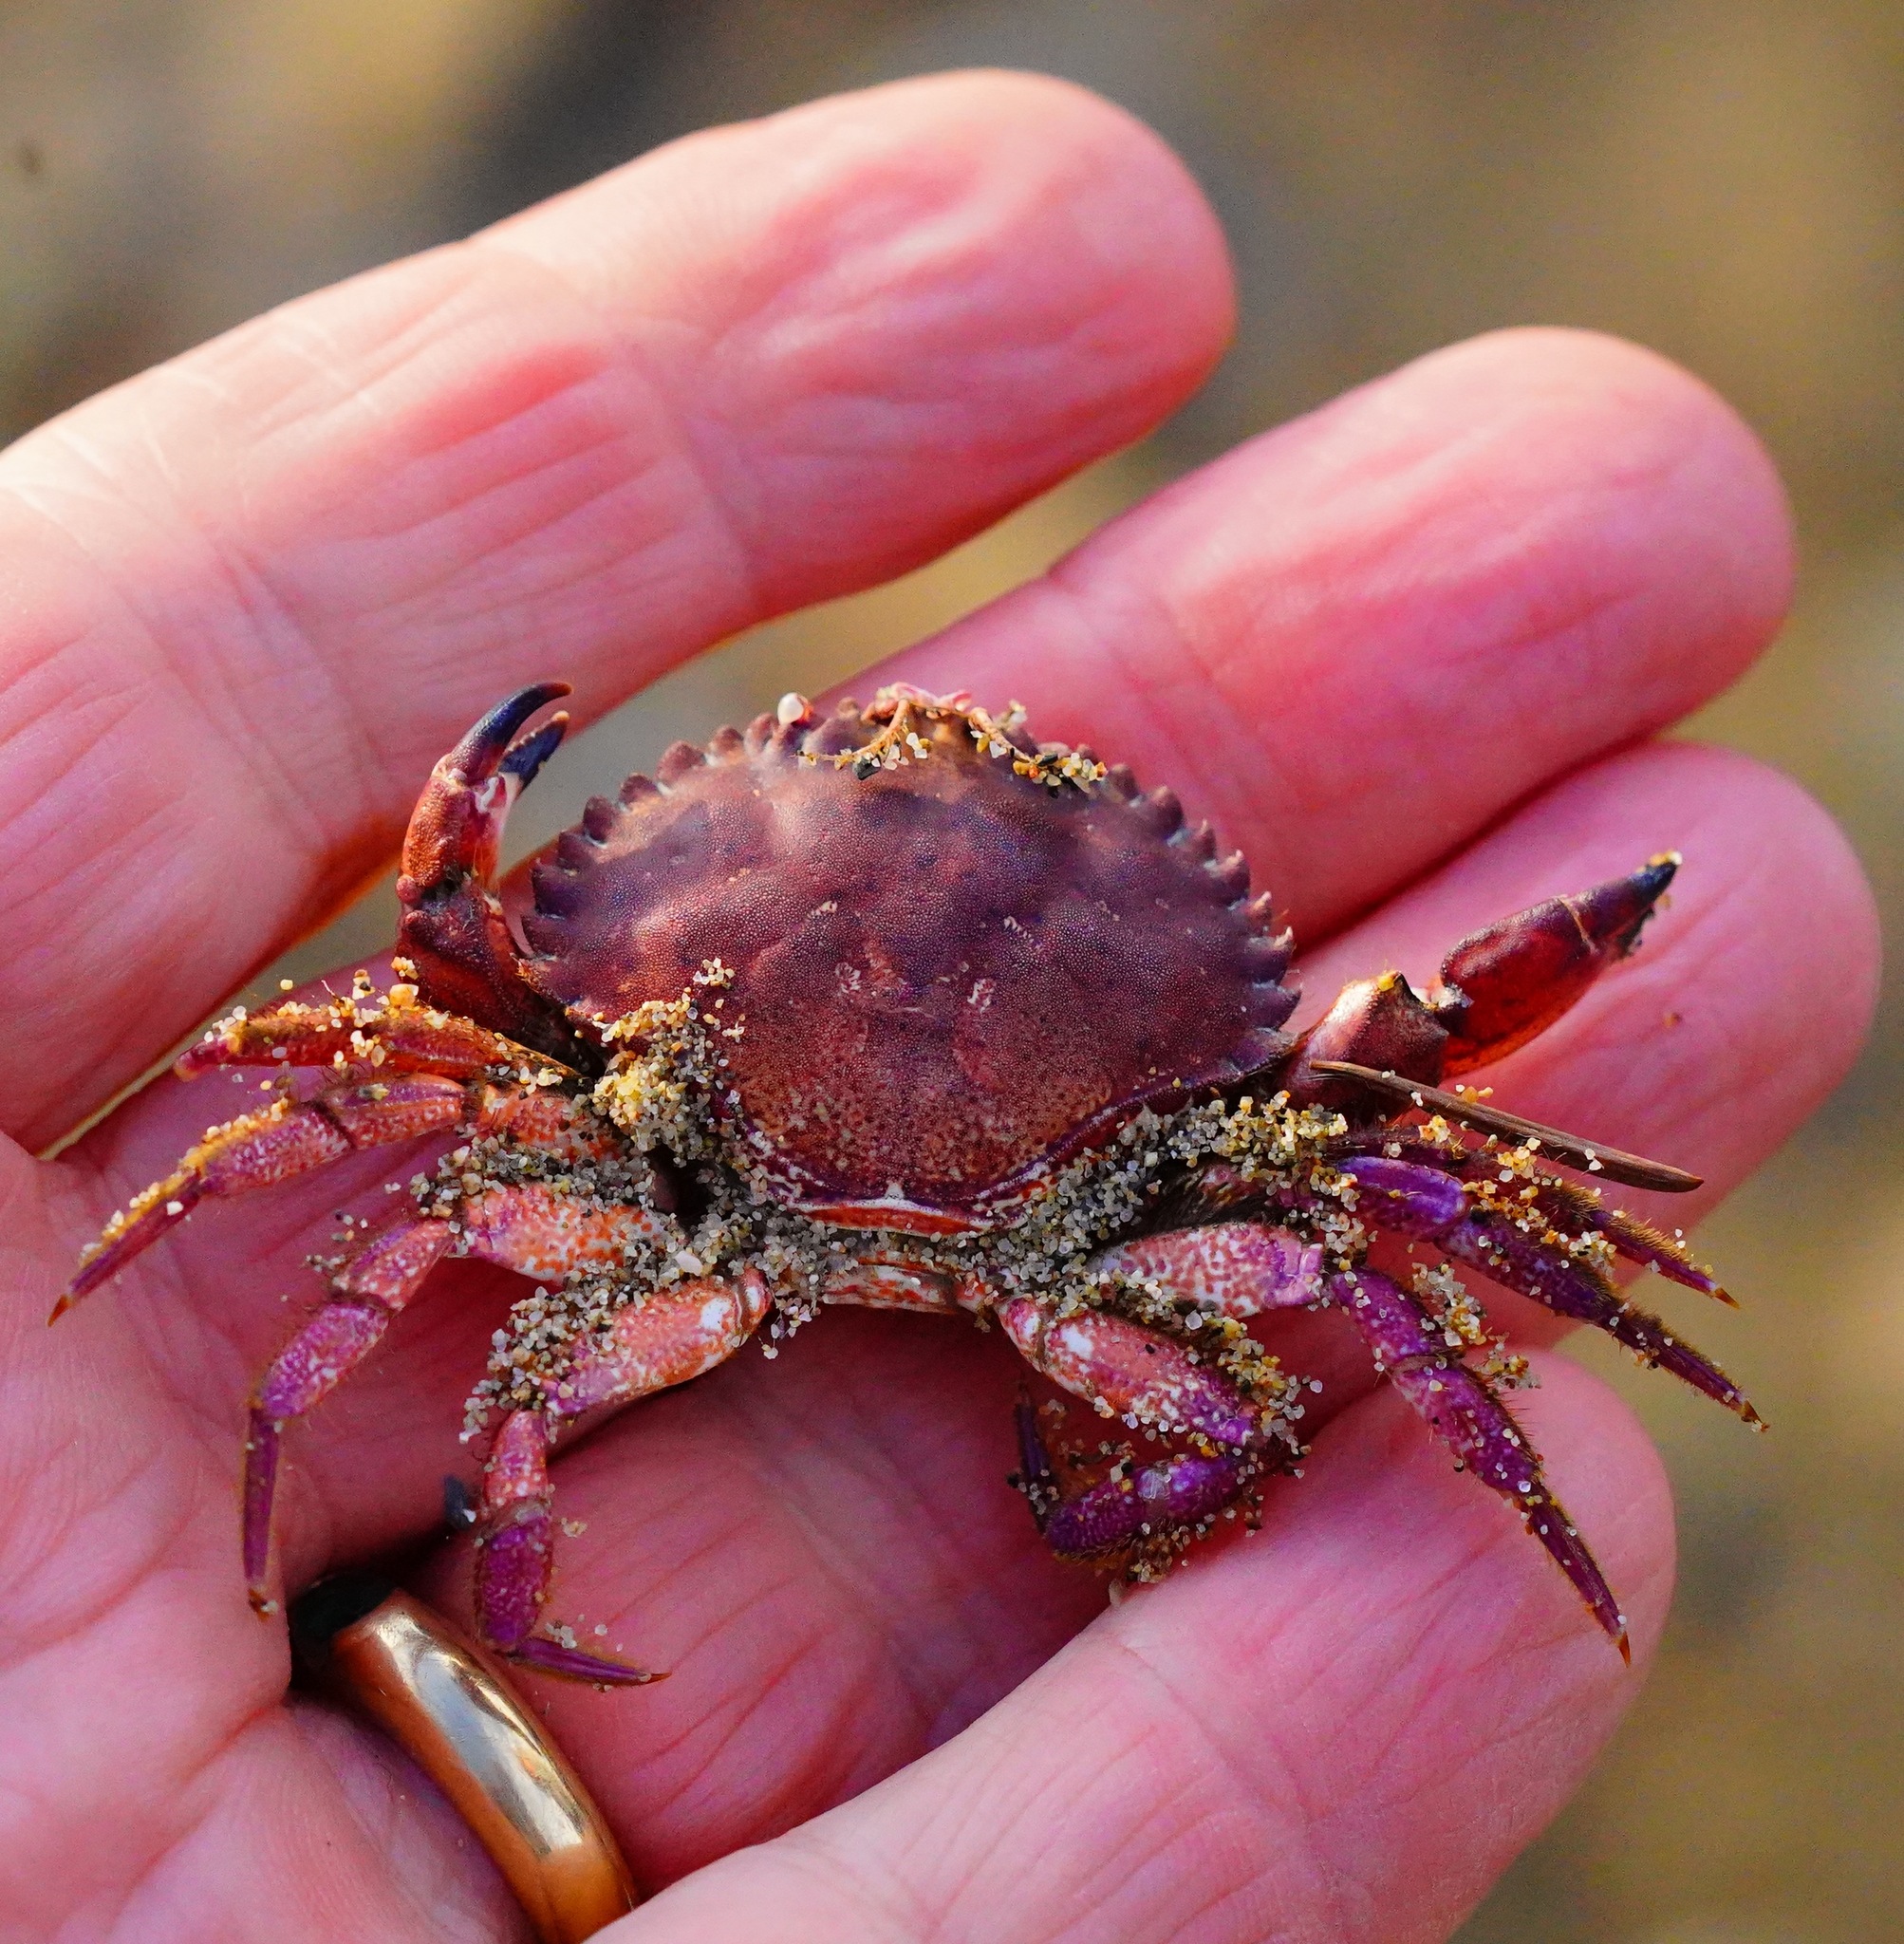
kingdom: Animalia
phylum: Arthropoda
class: Malacostraca
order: Decapoda
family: Cancridae
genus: Romaleon
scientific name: Romaleon antennarium
